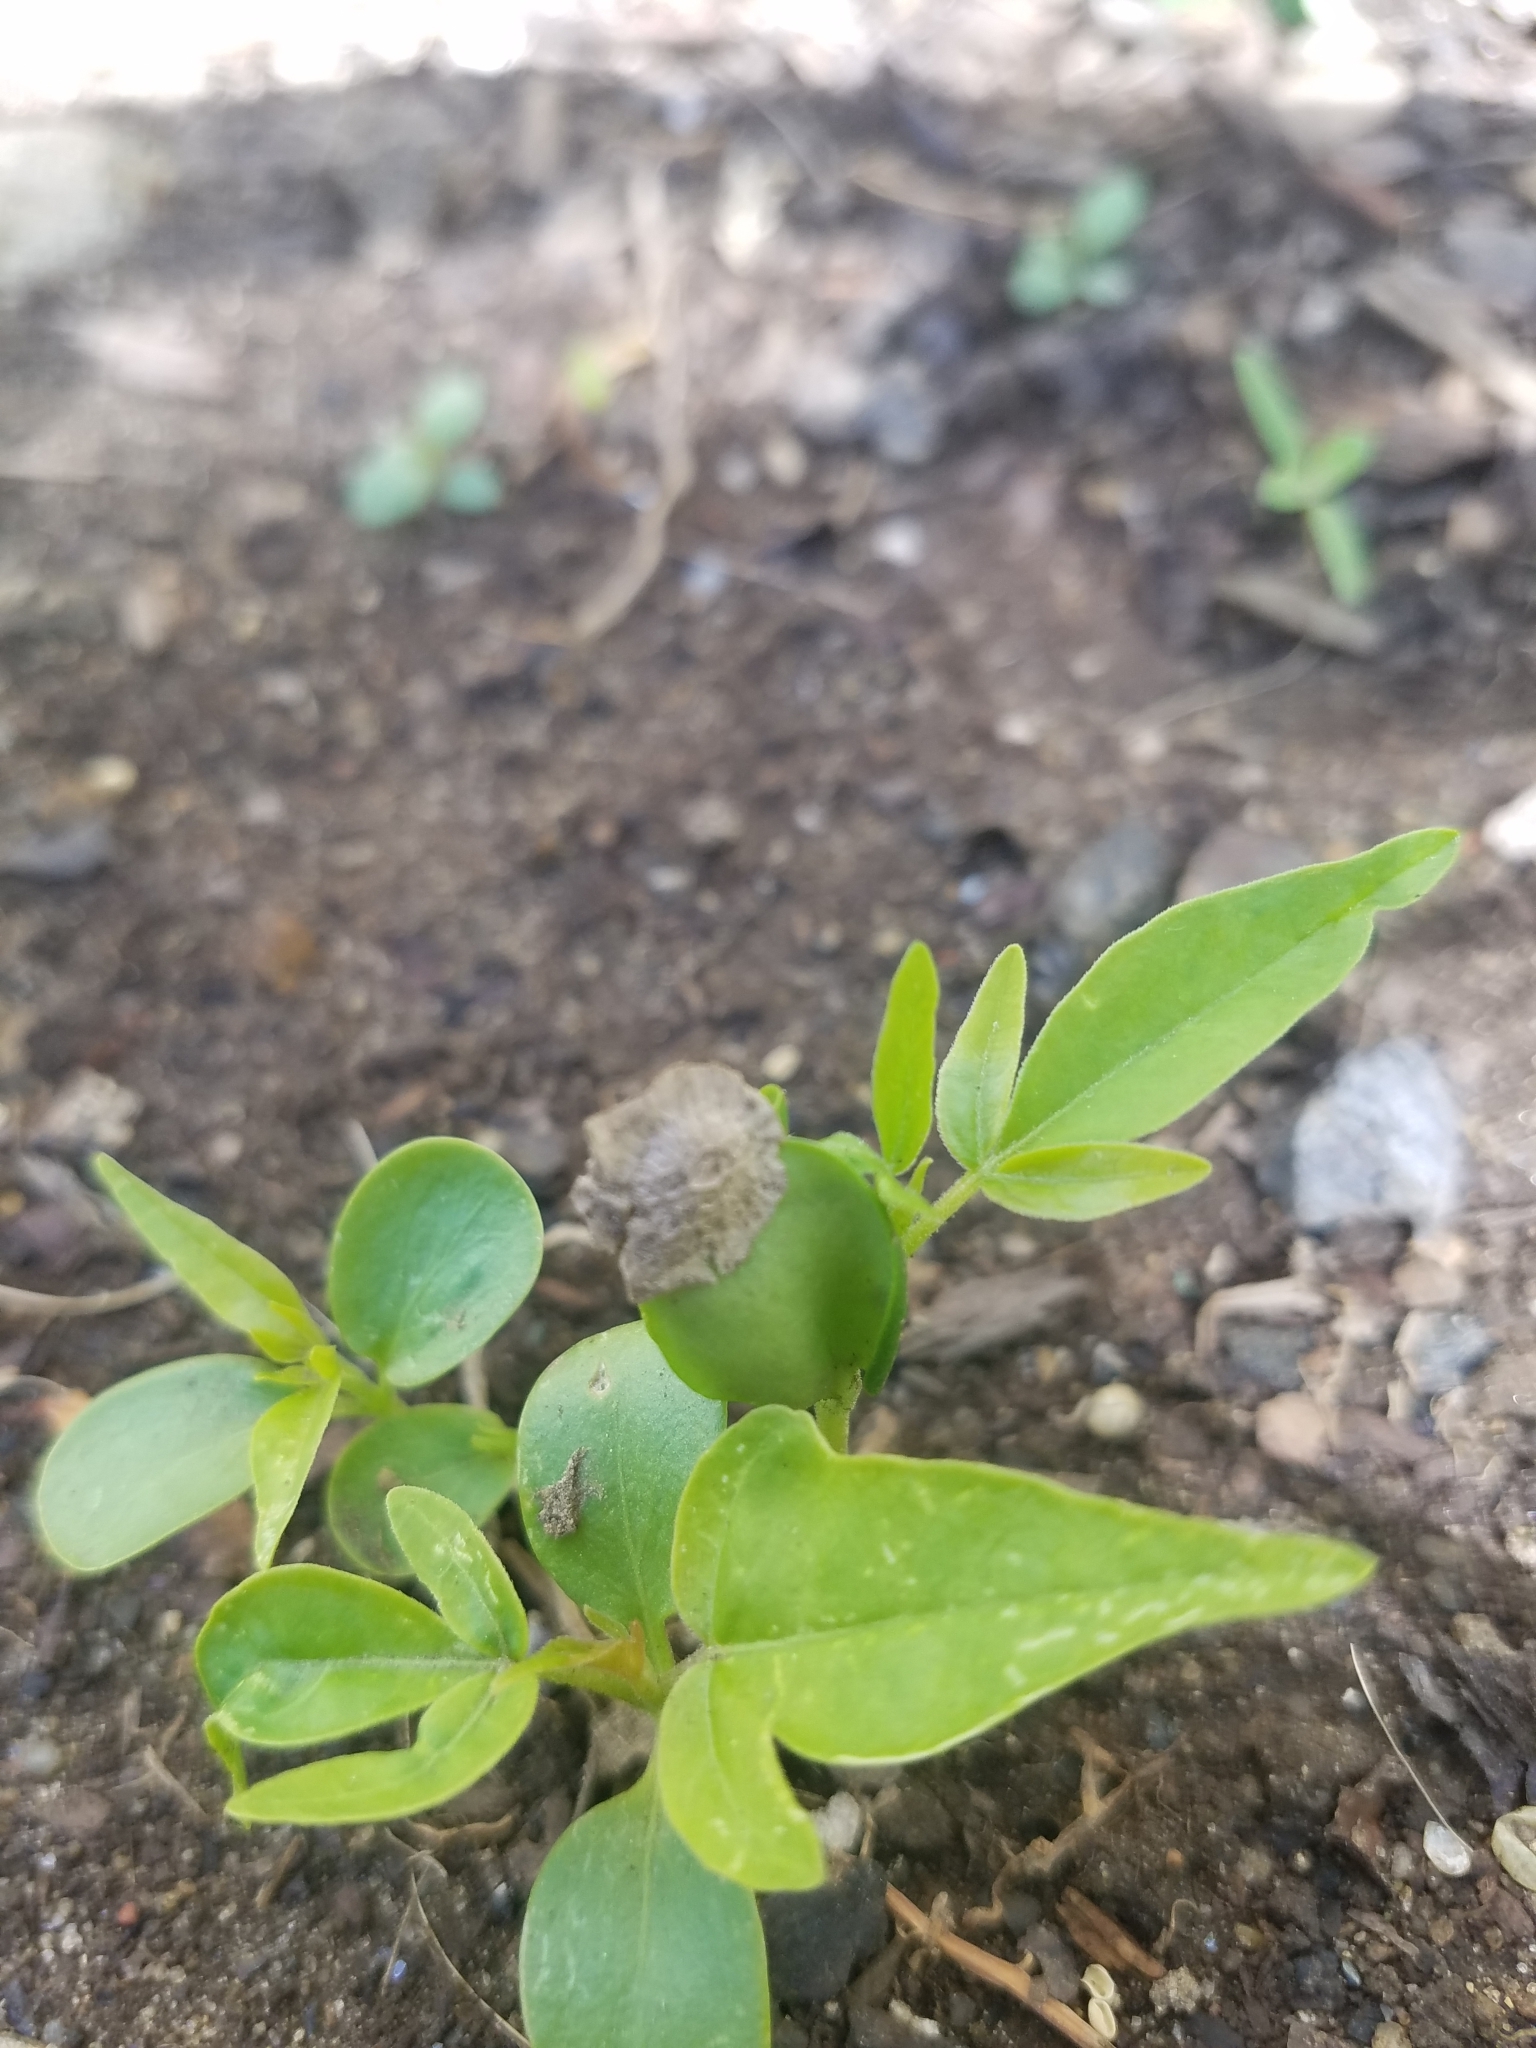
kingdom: Plantae
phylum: Tracheophyta
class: Magnoliopsida
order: Sapindales
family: Simaroubaceae
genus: Ailanthus
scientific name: Ailanthus altissima
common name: Tree-of-heaven
